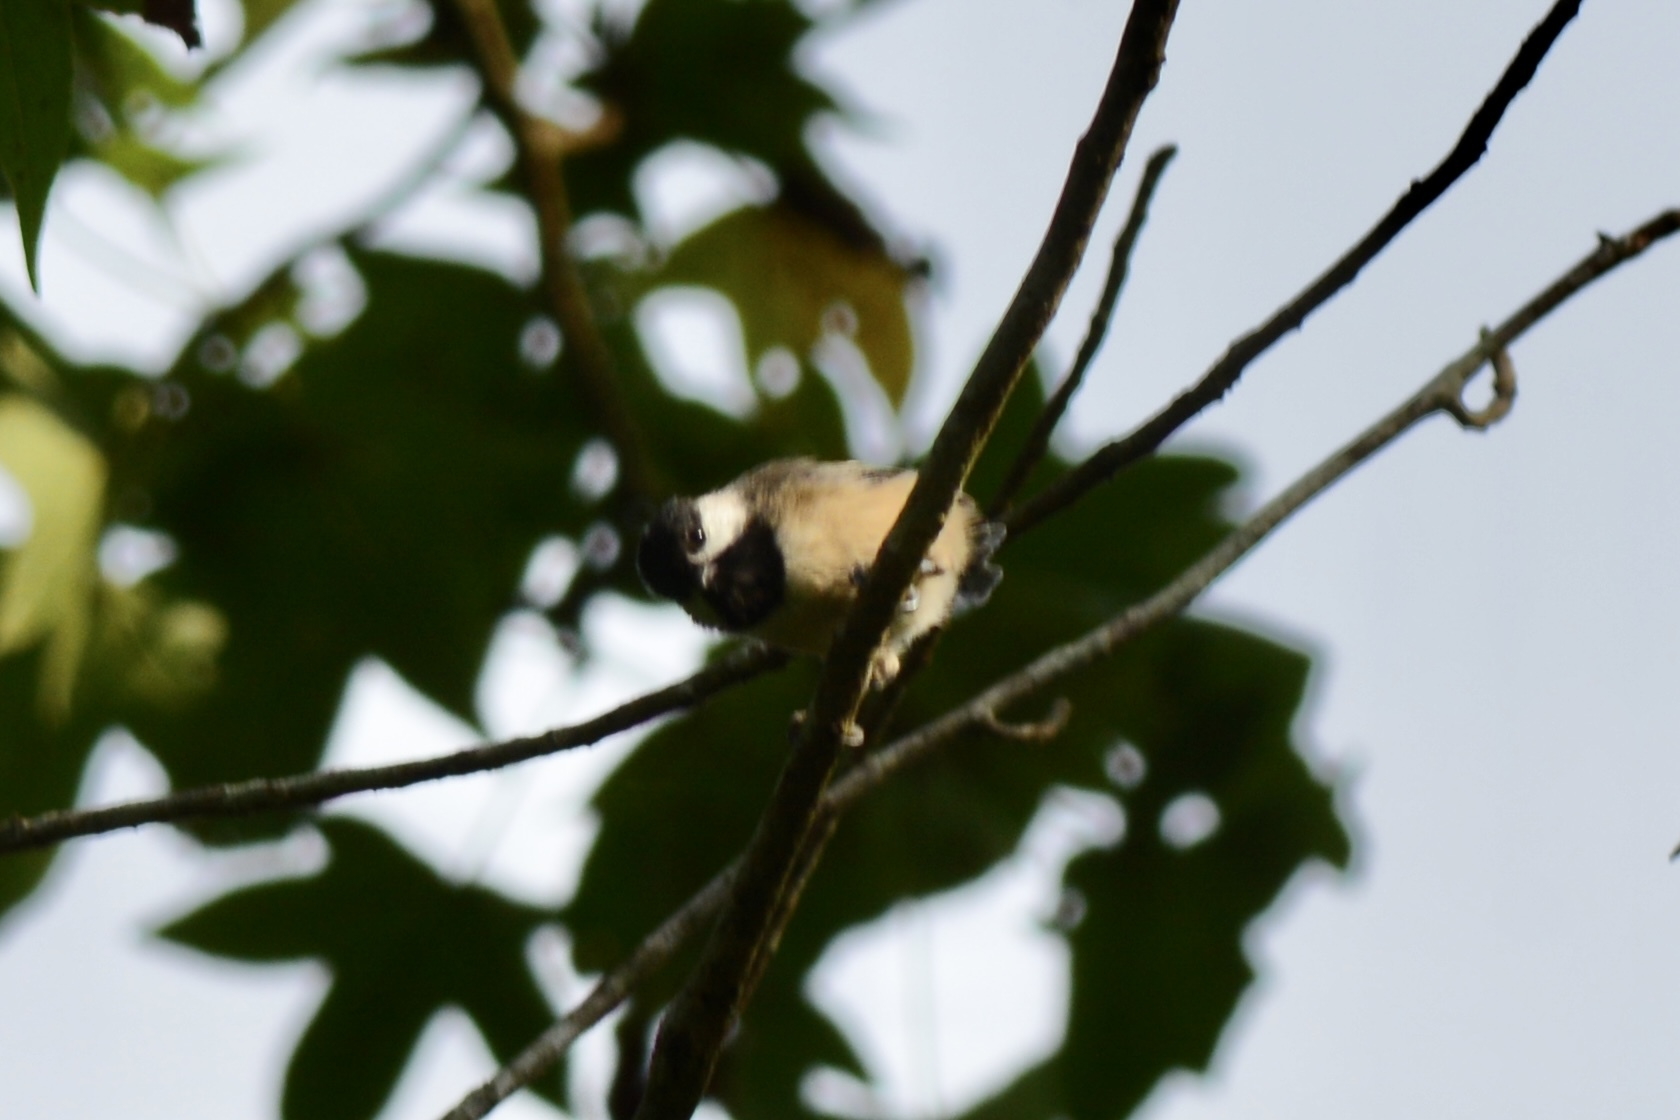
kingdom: Animalia
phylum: Chordata
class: Aves
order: Passeriformes
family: Paridae
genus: Poecile
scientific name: Poecile carolinensis
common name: Carolina chickadee
